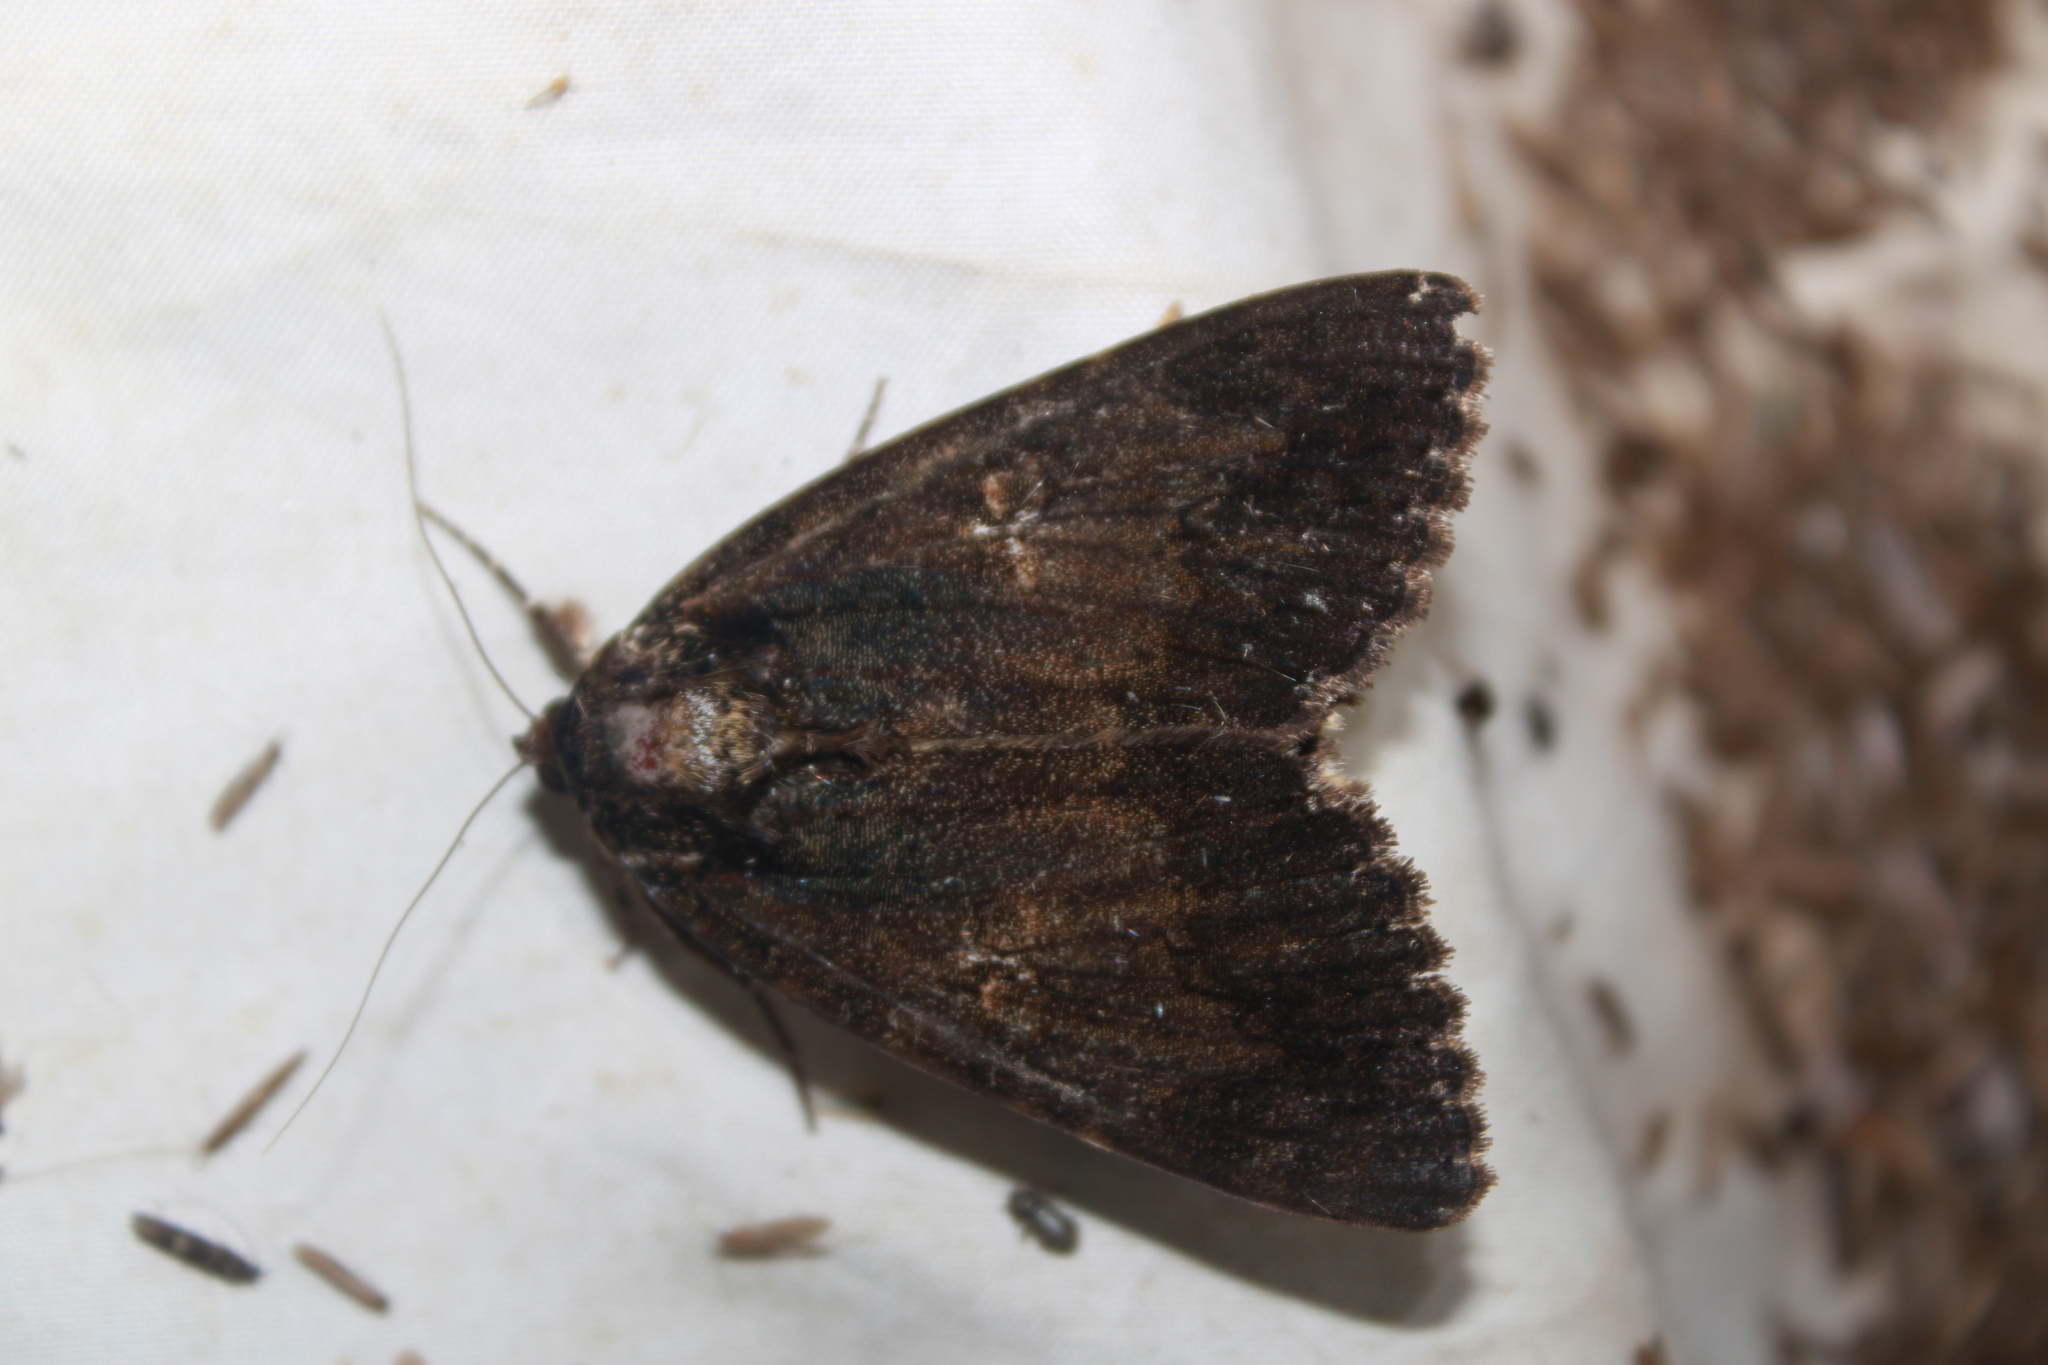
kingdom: Animalia
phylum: Arthropoda
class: Insecta
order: Lepidoptera
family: Erebidae
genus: Catocala
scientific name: Catocala ilia
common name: Ilia underwing
